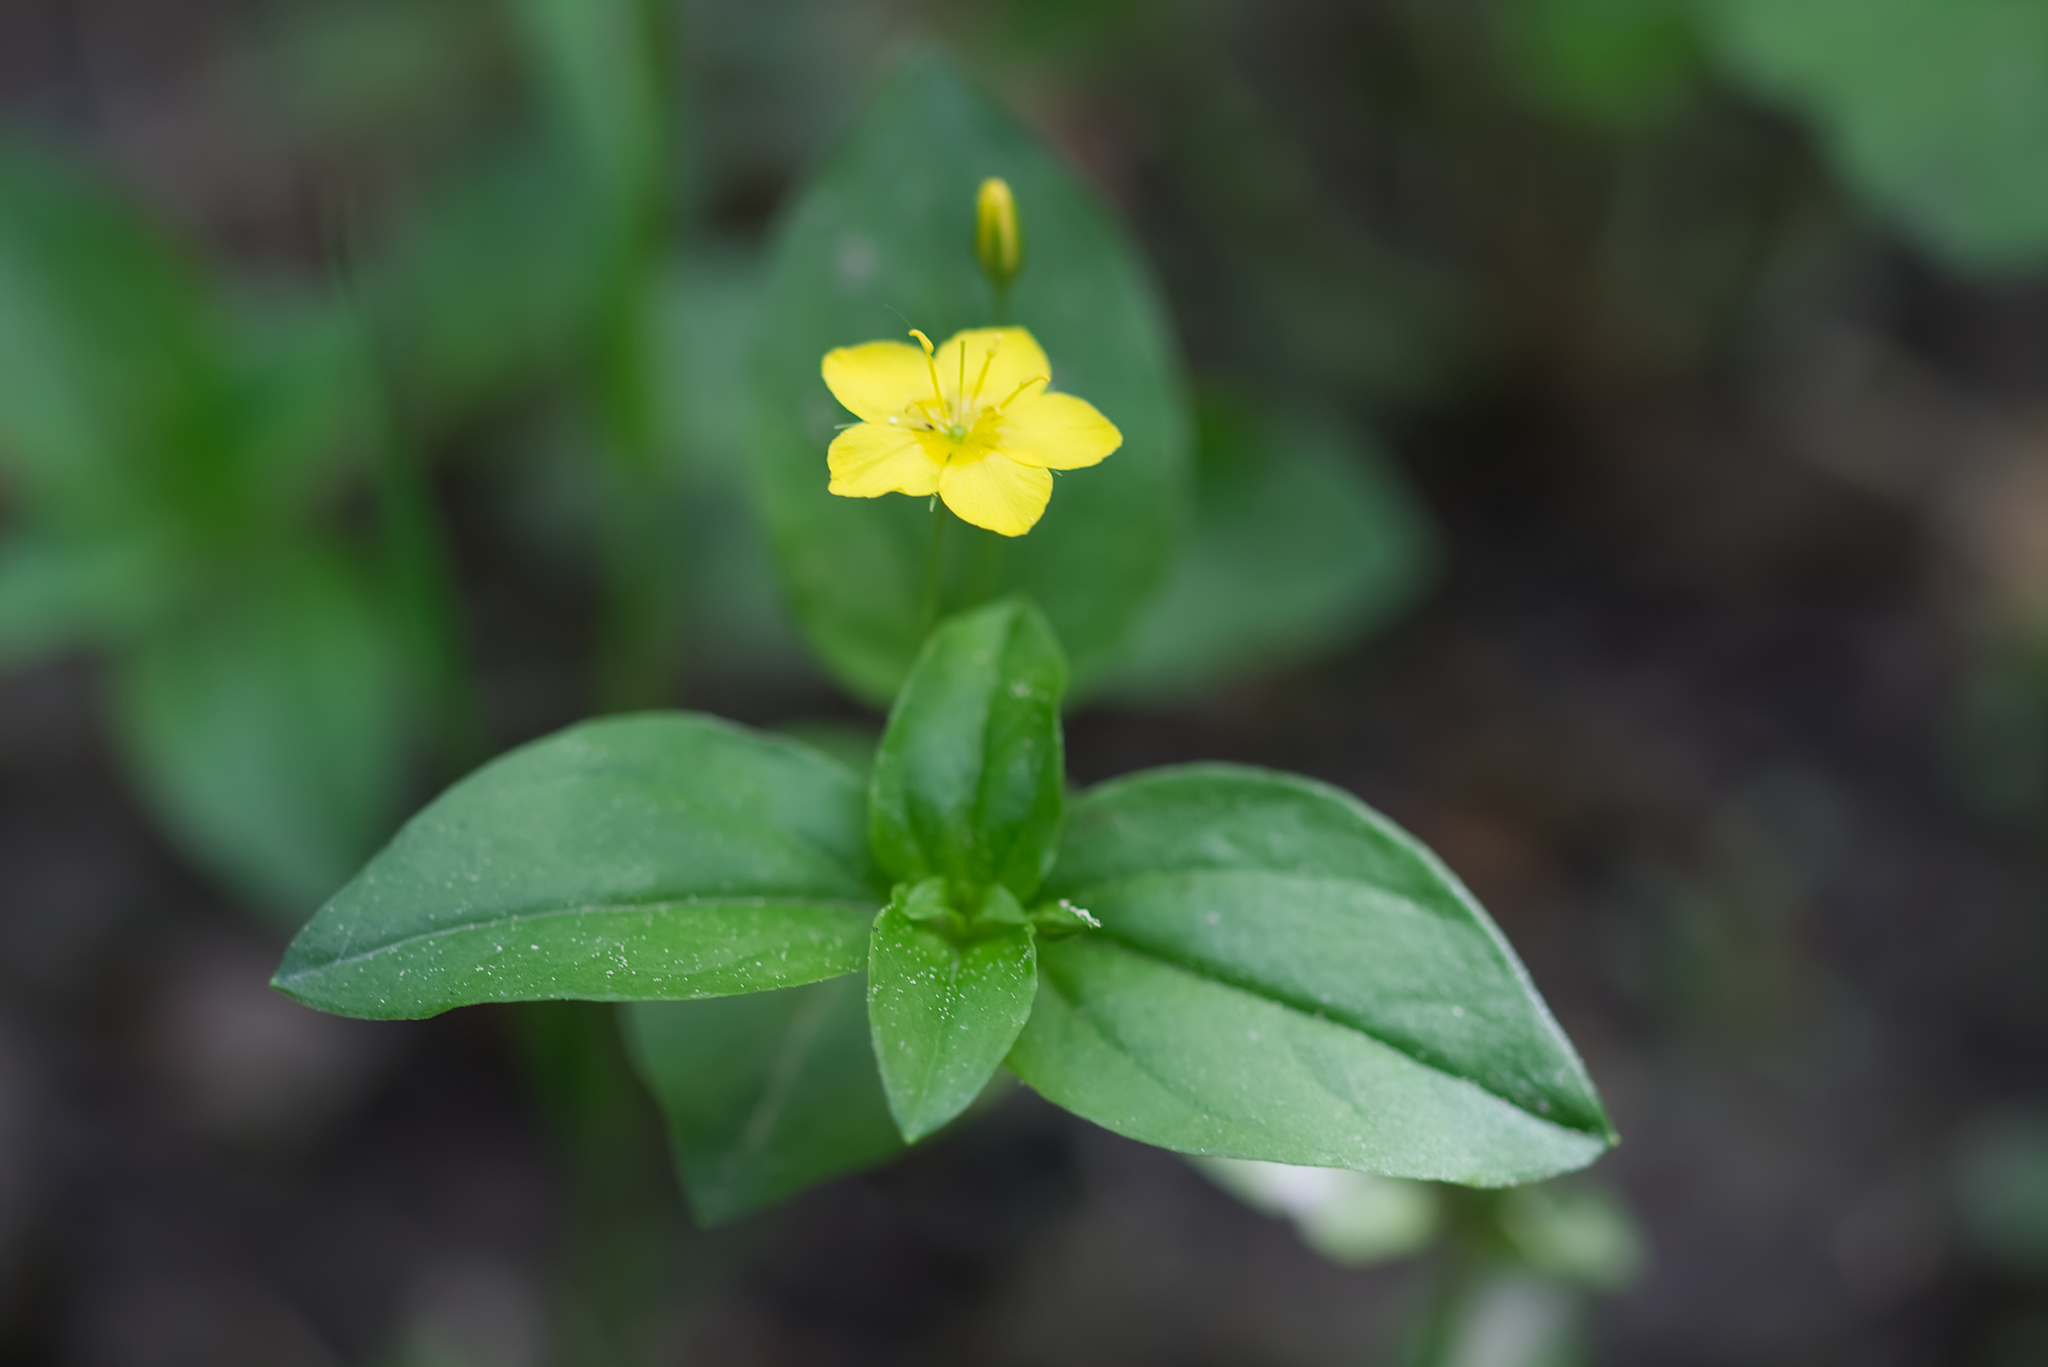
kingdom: Plantae
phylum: Tracheophyta
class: Magnoliopsida
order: Ericales
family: Primulaceae
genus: Lysimachia
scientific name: Lysimachia nemorum
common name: Yellow pimpernel
